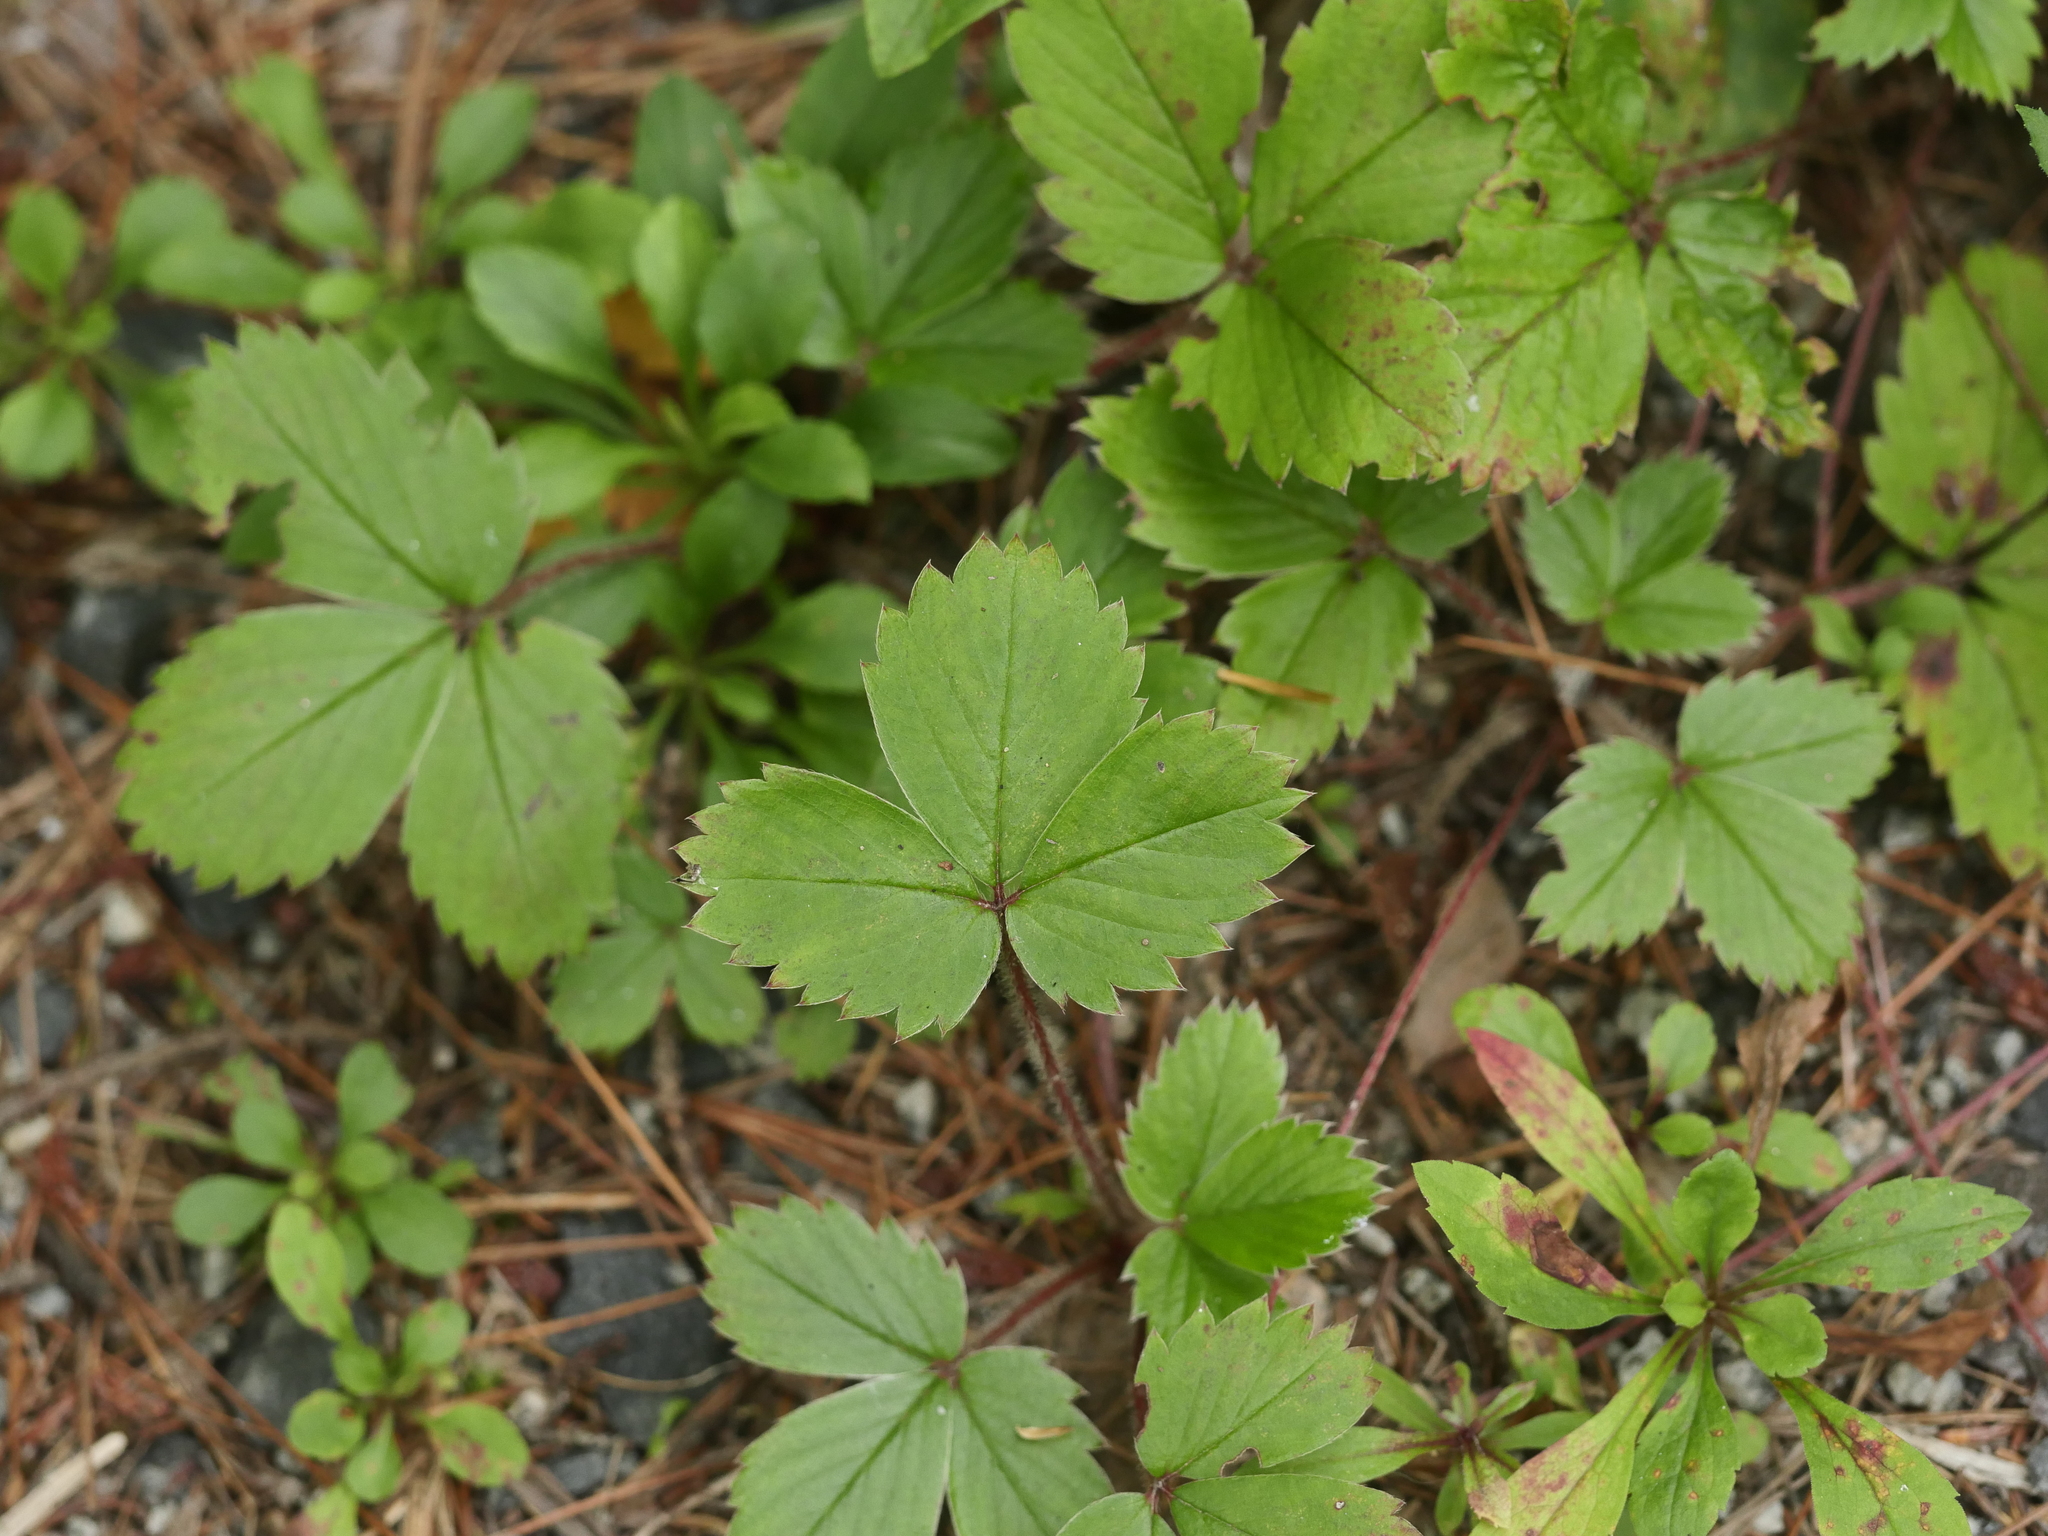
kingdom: Plantae
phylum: Tracheophyta
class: Magnoliopsida
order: Rosales
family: Rosaceae
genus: Fragaria
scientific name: Fragaria virginiana
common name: Thickleaved wild strawberry
